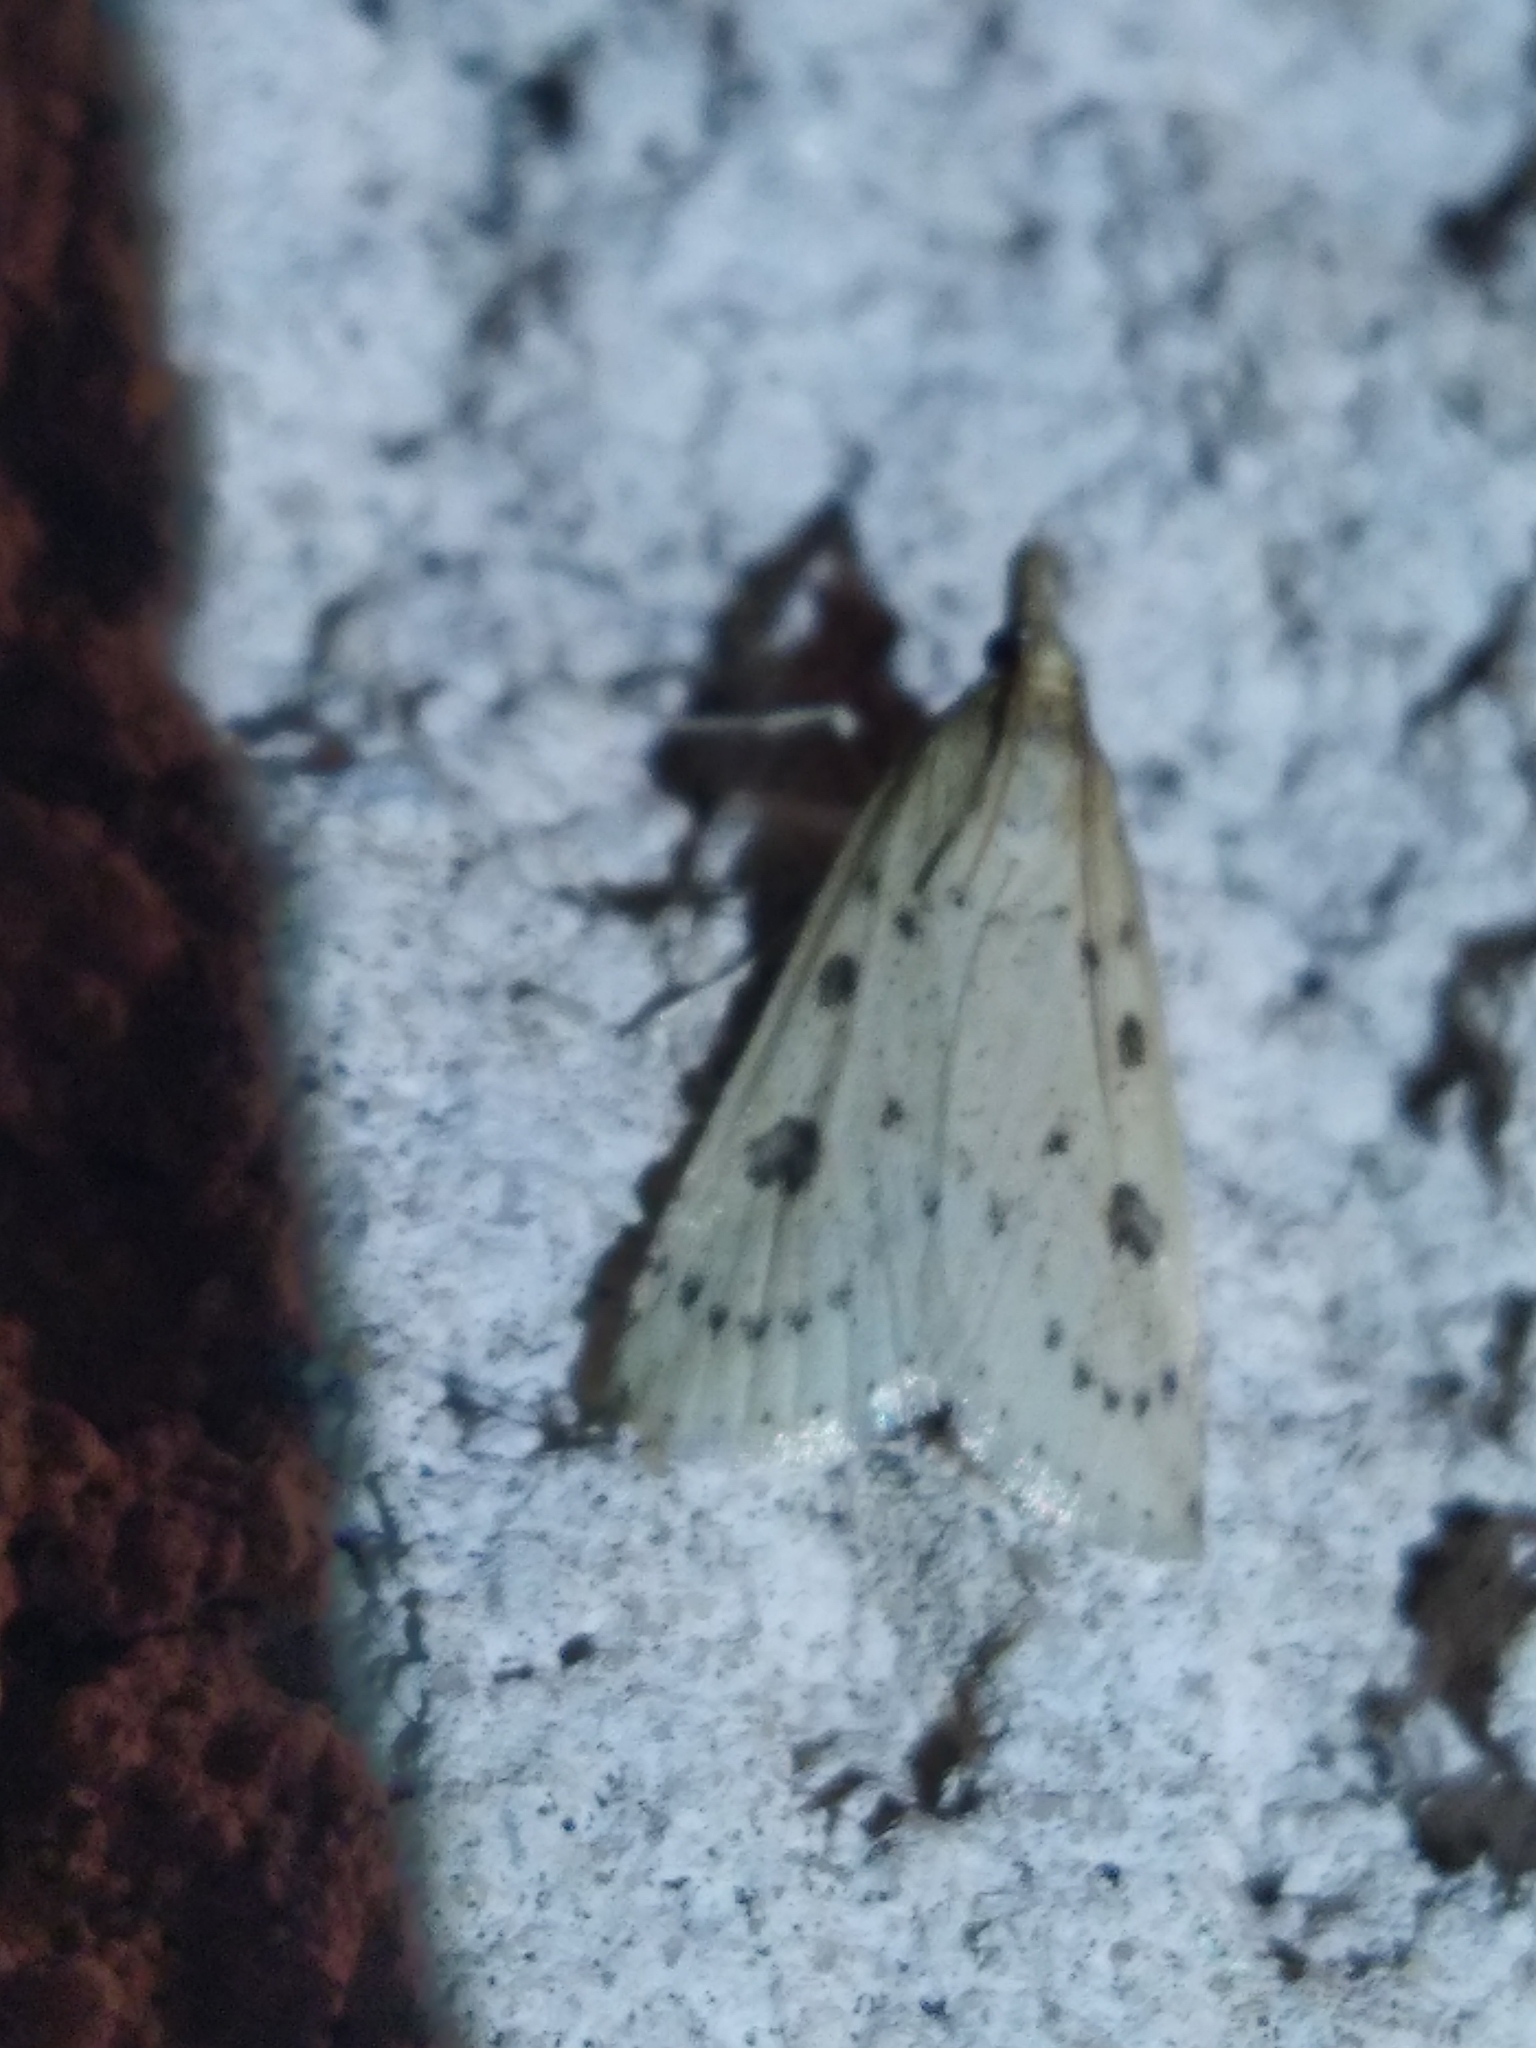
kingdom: Animalia
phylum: Arthropoda
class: Insecta
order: Lepidoptera
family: Crambidae
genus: Udea
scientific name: Udea numeralis
